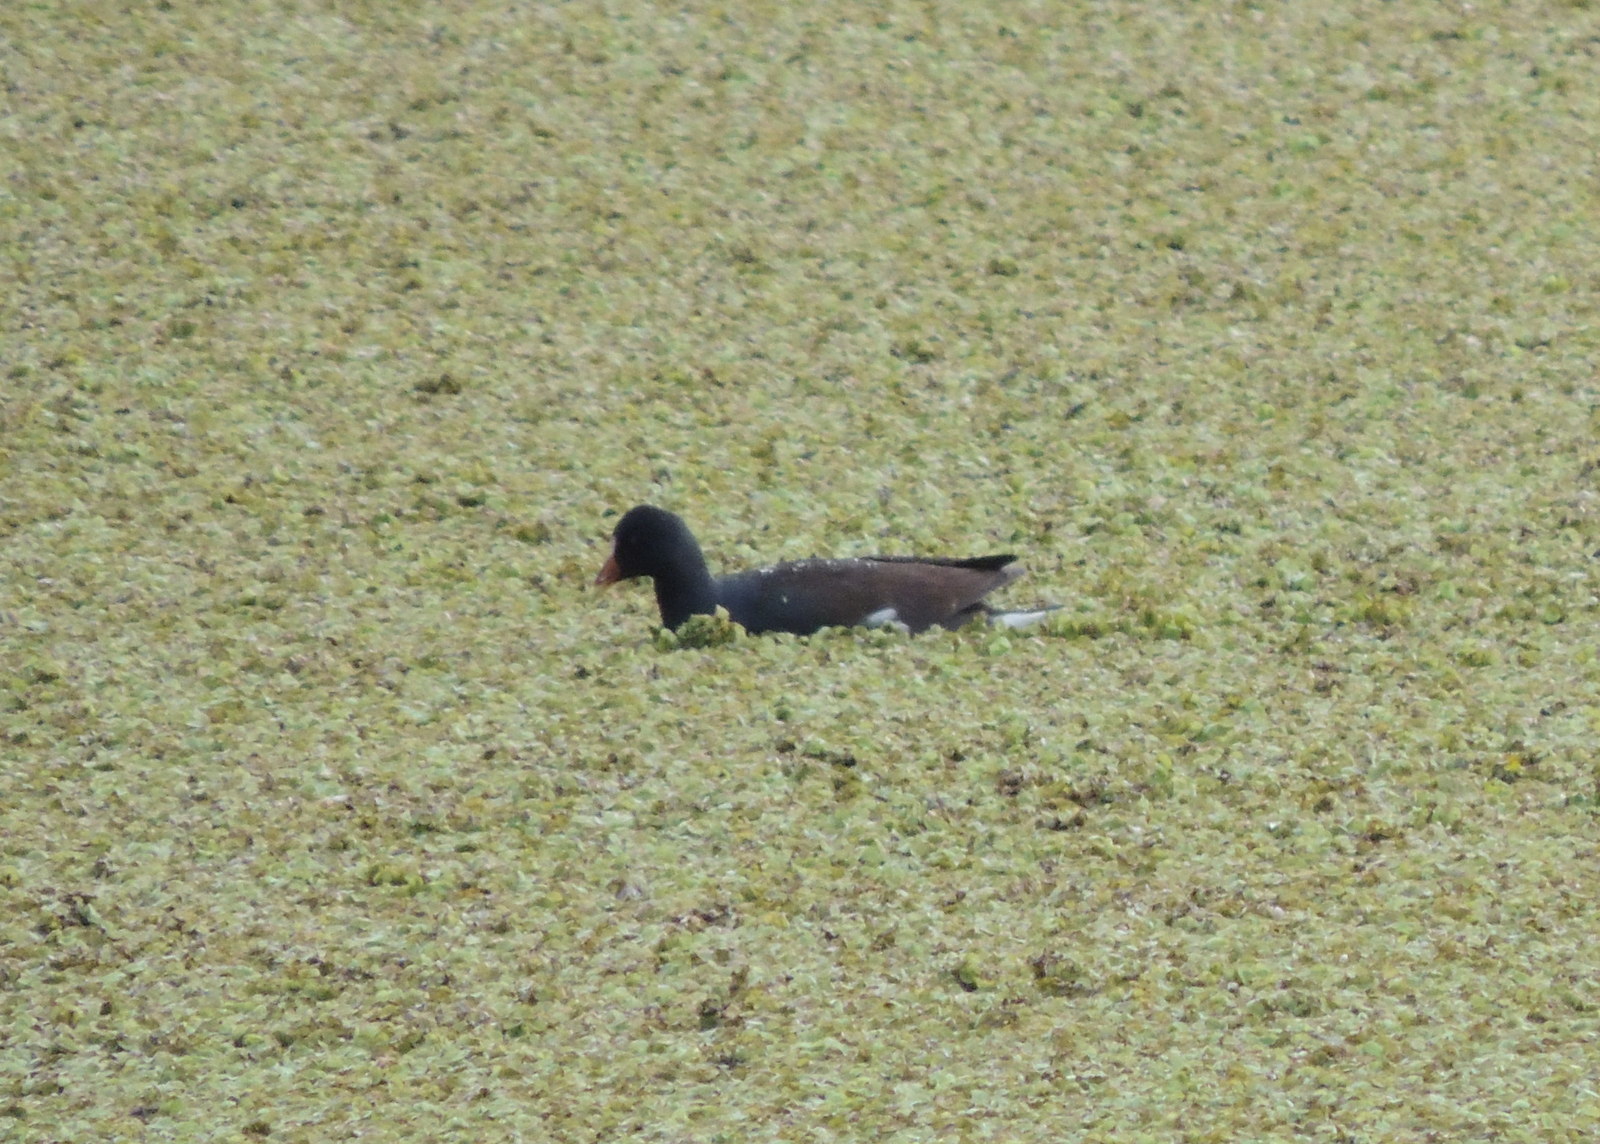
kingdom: Animalia
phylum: Chordata
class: Aves
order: Gruiformes
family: Rallidae
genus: Gallinula
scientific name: Gallinula chloropus
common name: Common moorhen
